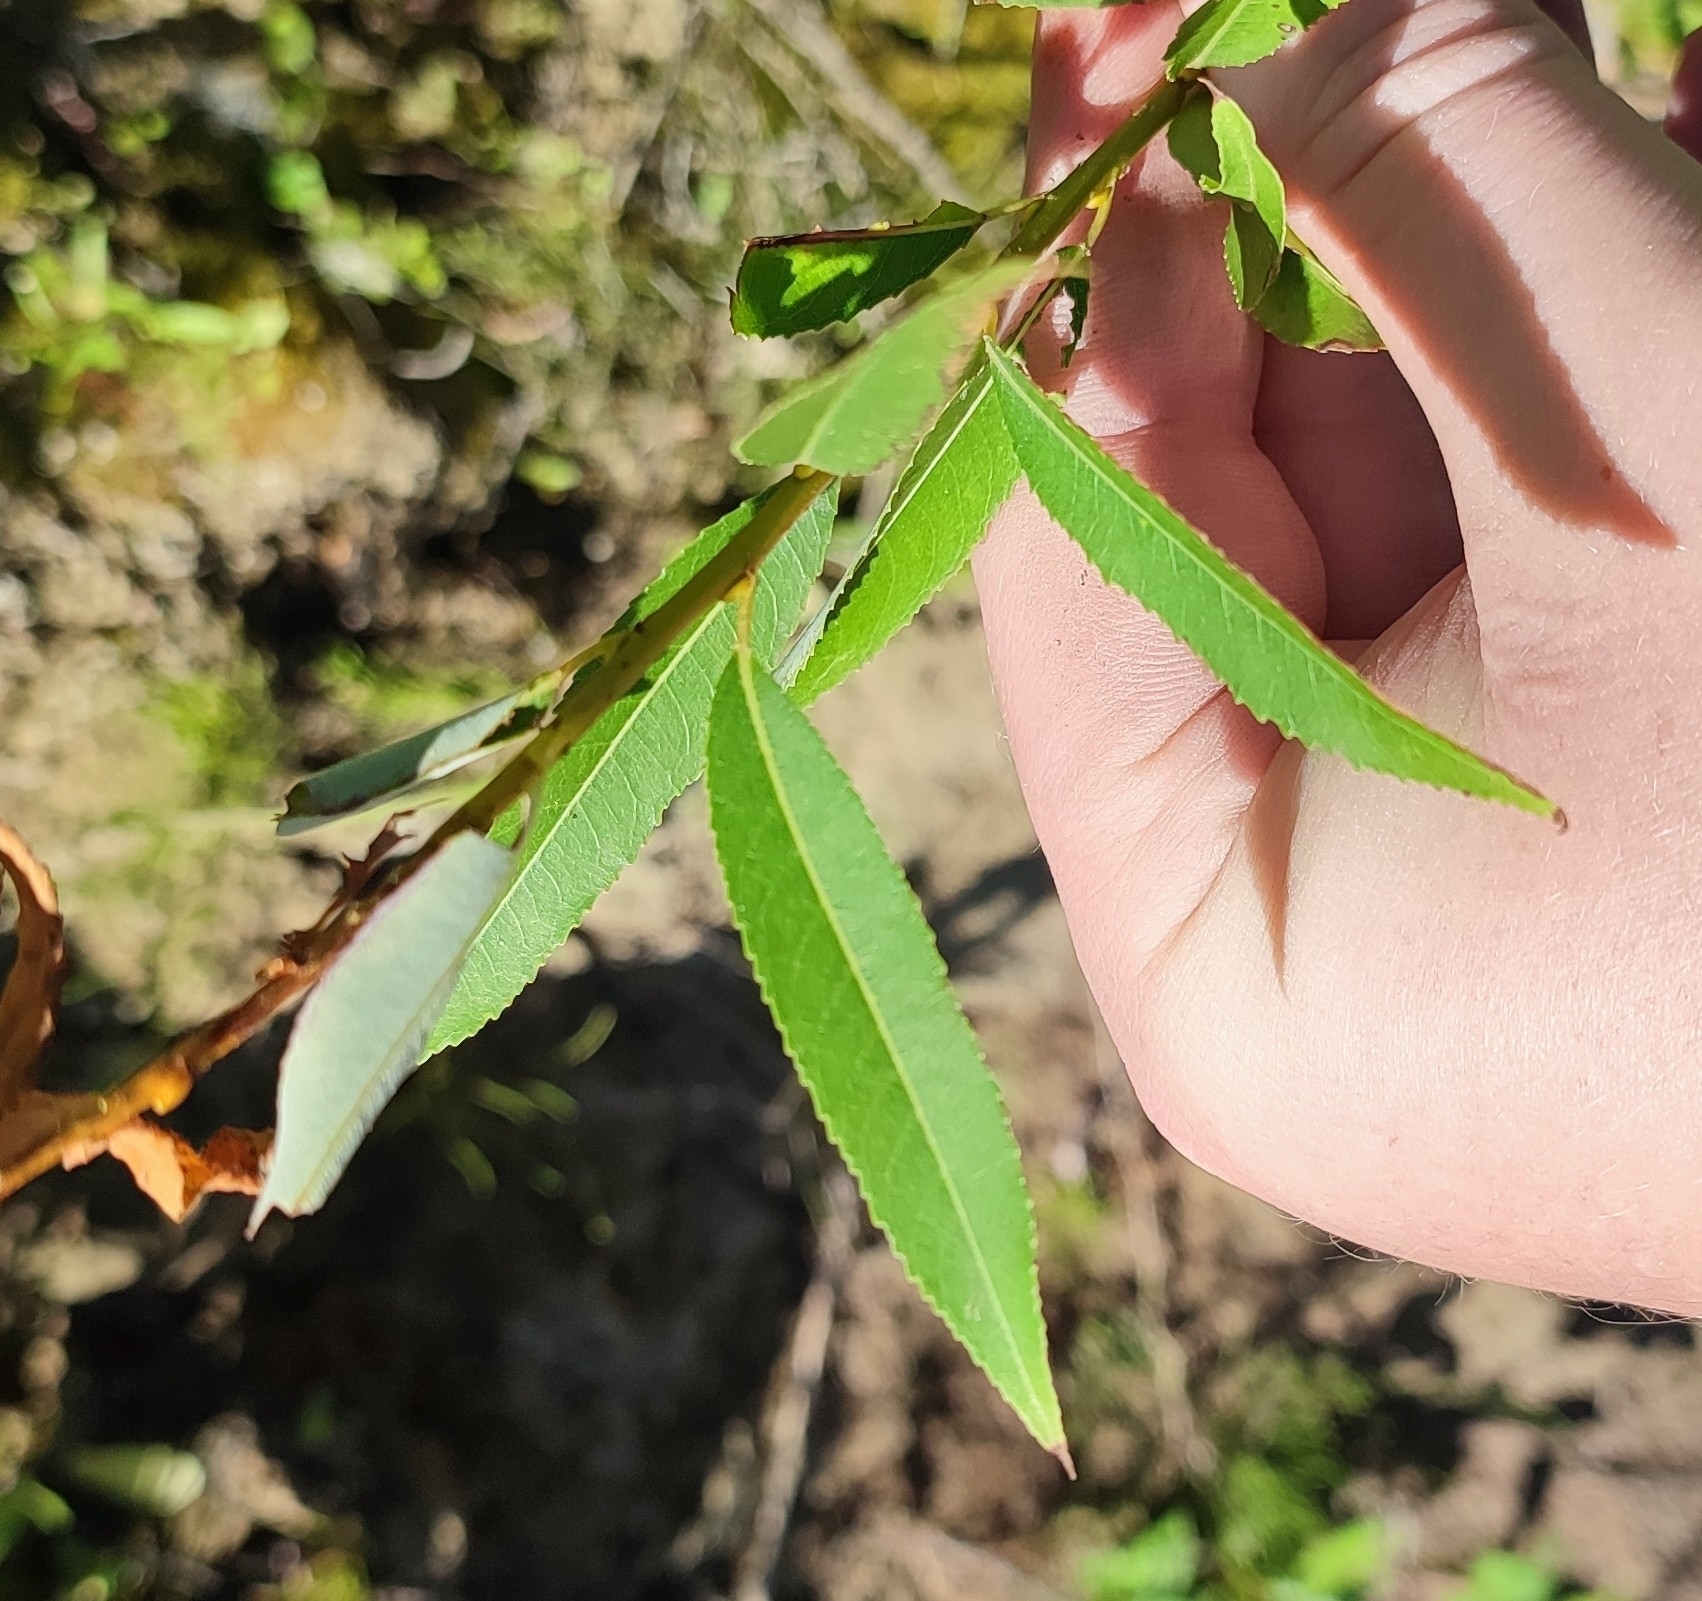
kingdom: Plantae
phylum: Tracheophyta
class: Magnoliopsida
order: Malpighiales
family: Salicaceae
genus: Salix
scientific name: Salix triandra
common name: Almond willow
